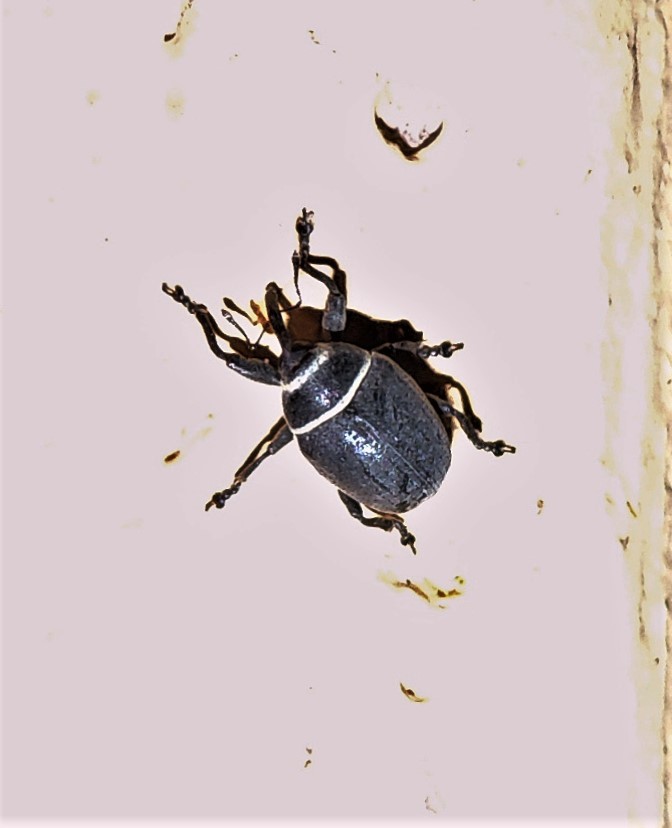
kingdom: Animalia
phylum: Arthropoda
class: Insecta
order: Coleoptera
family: Curculionidae
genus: Rhyssomatus
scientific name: Rhyssomatus marginatus
